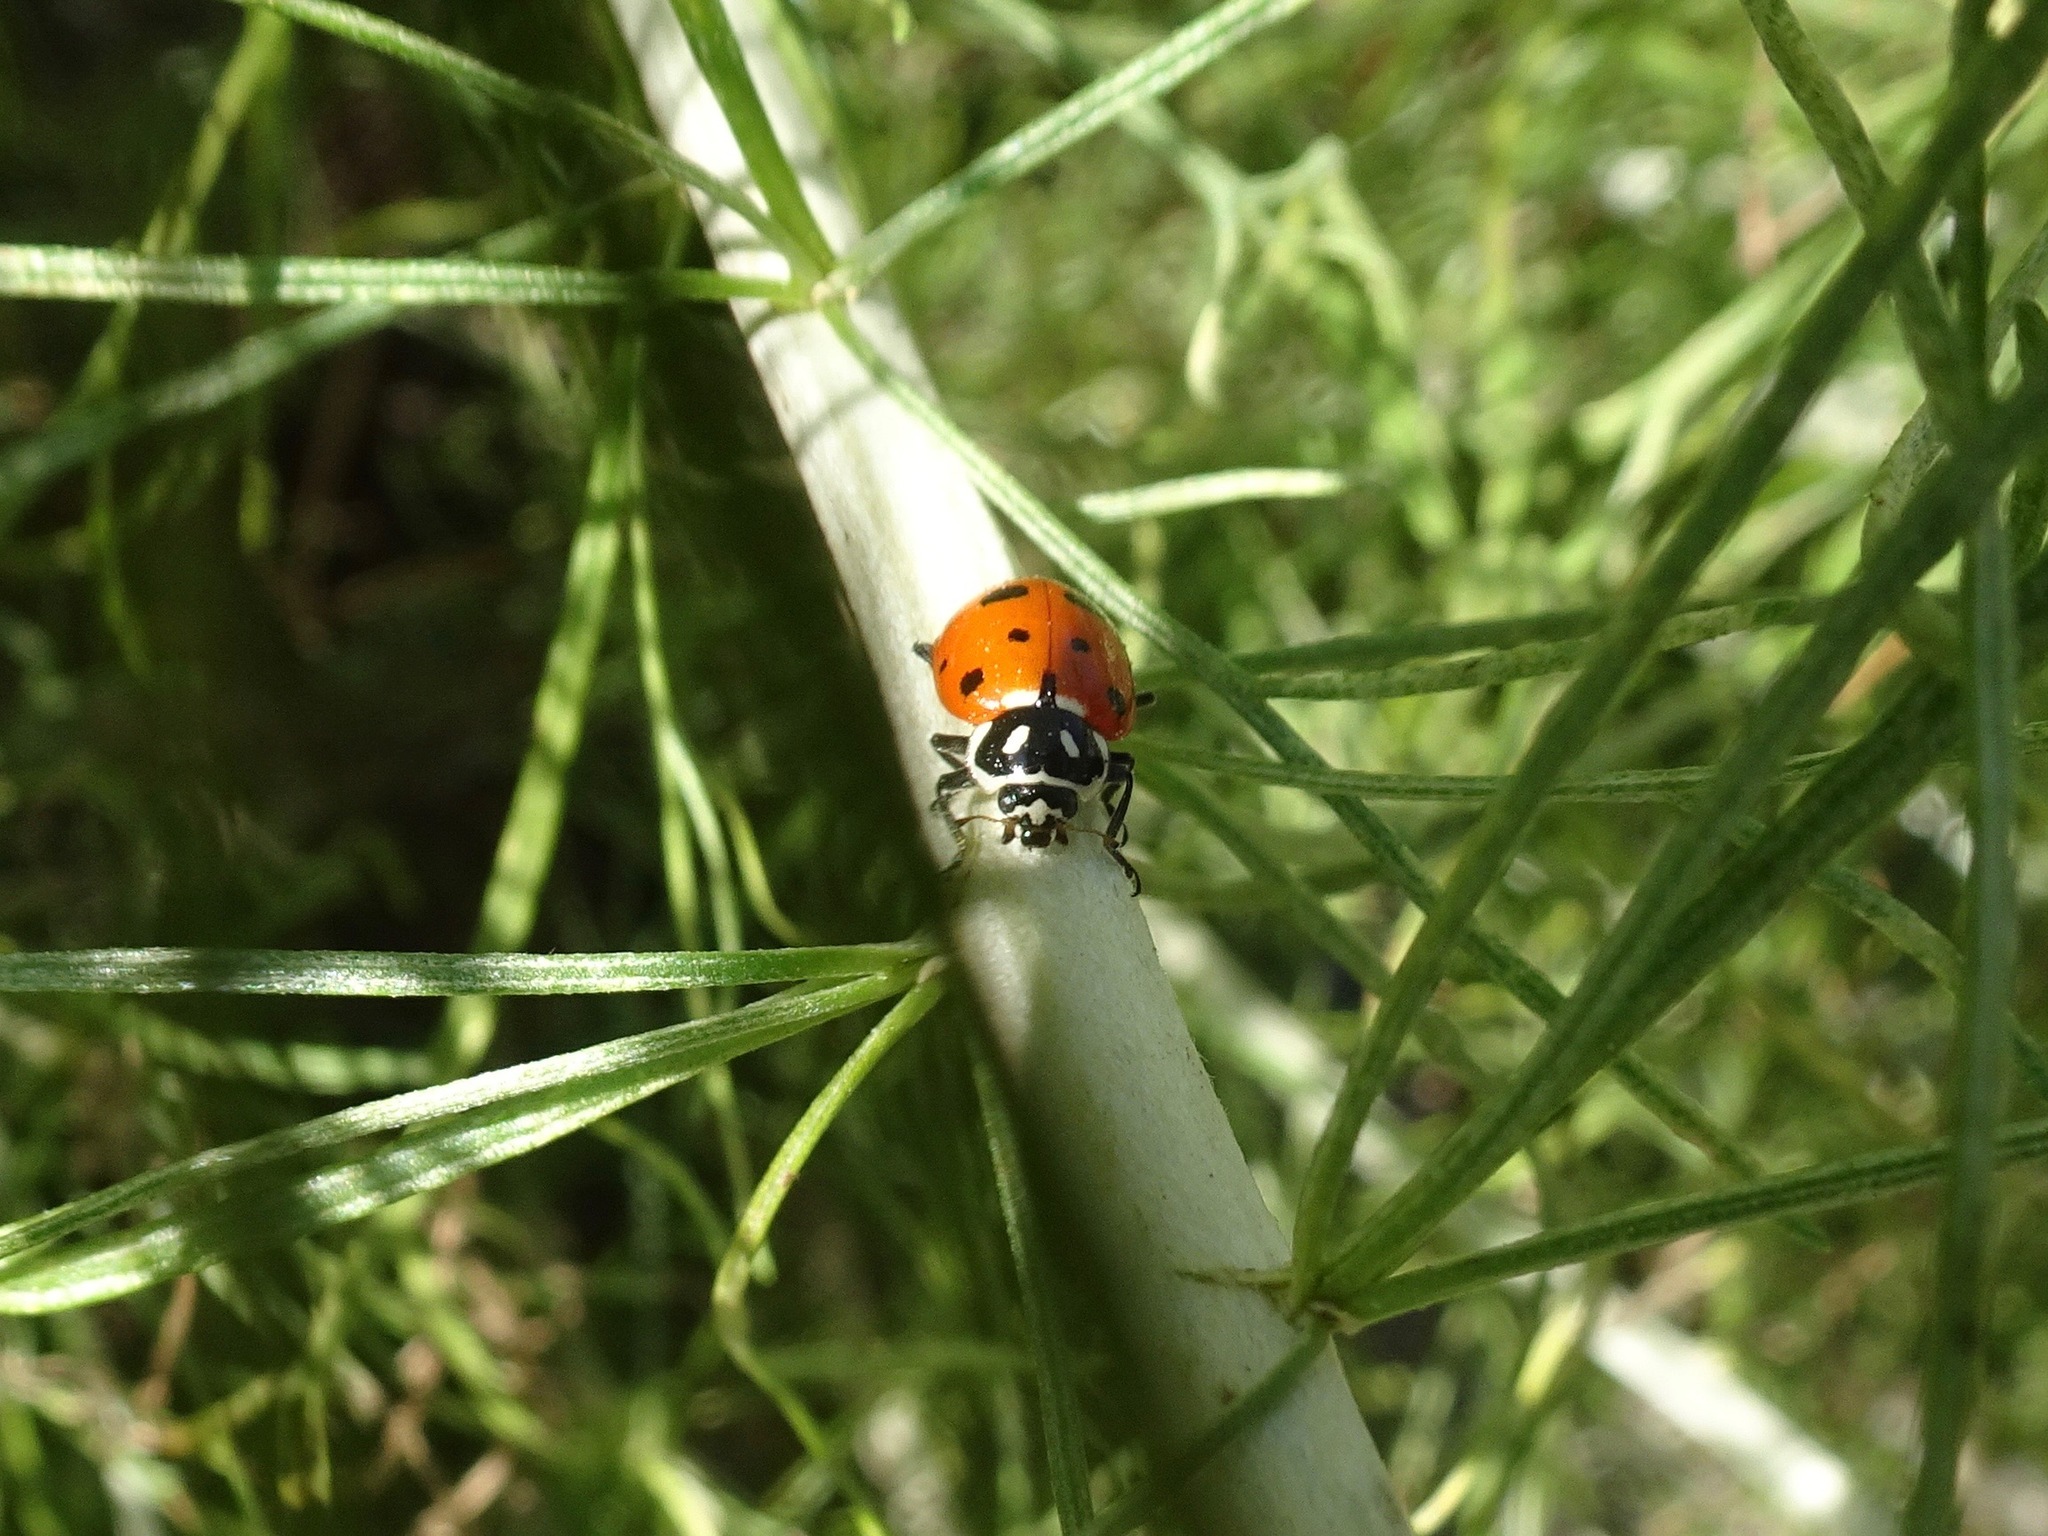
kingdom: Animalia
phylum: Arthropoda
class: Insecta
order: Coleoptera
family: Coccinellidae
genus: Hippodamia
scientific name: Hippodamia convergens
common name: Convergent lady beetle
